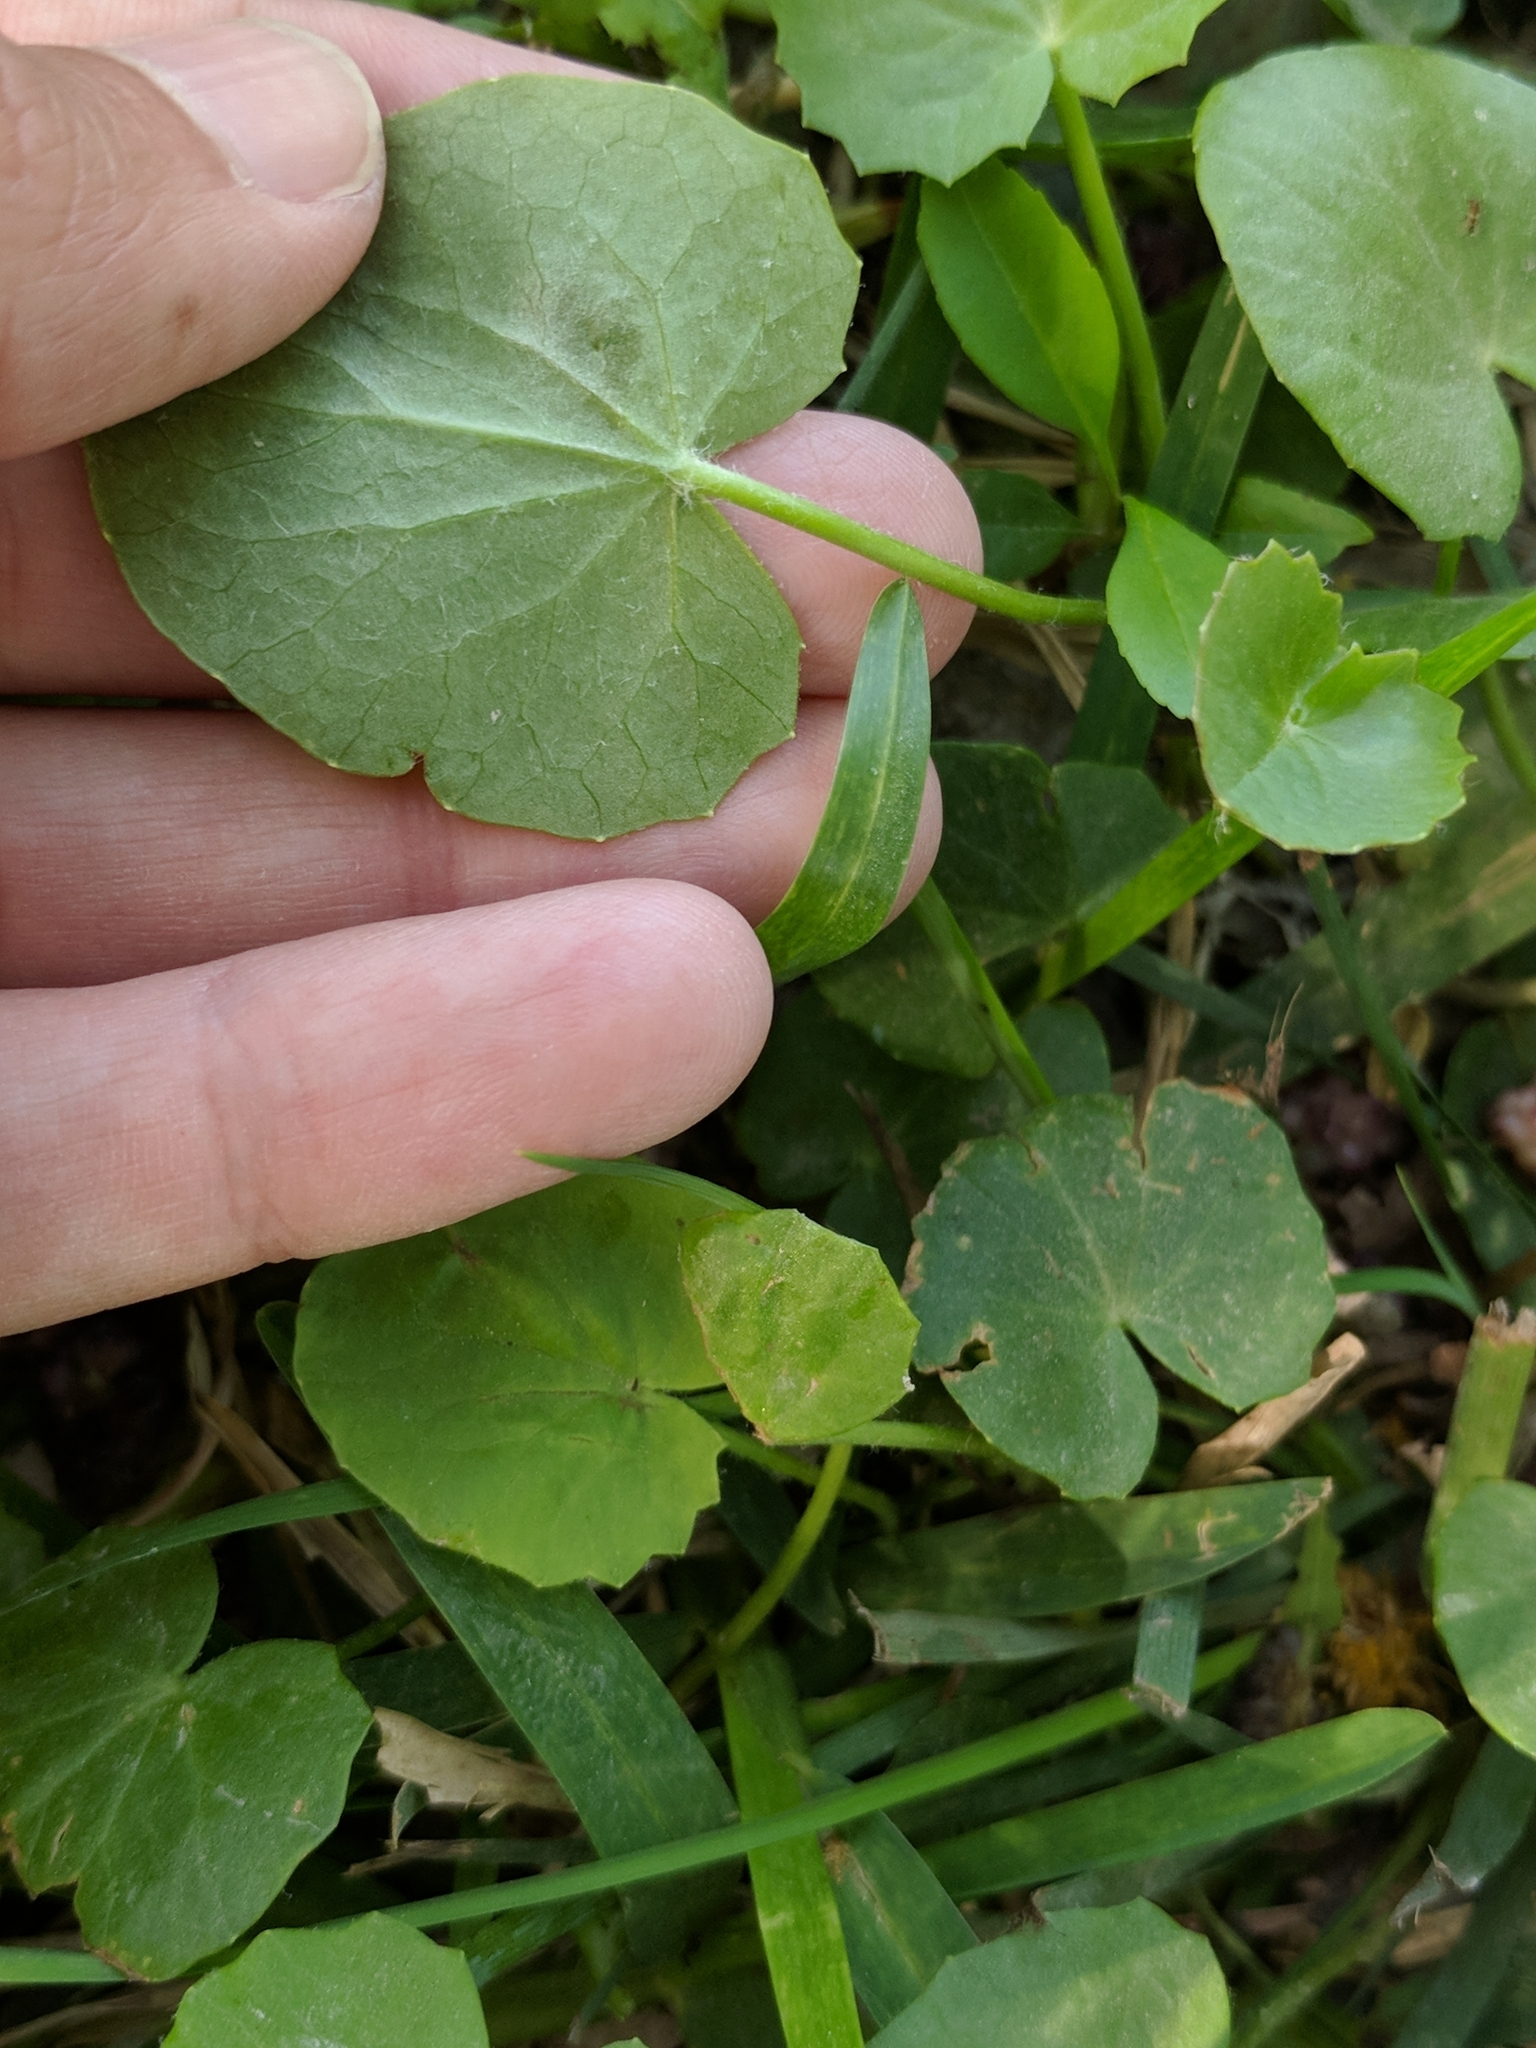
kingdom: Plantae
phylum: Tracheophyta
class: Magnoliopsida
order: Apiales
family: Apiaceae
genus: Centella
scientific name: Centella erecta
